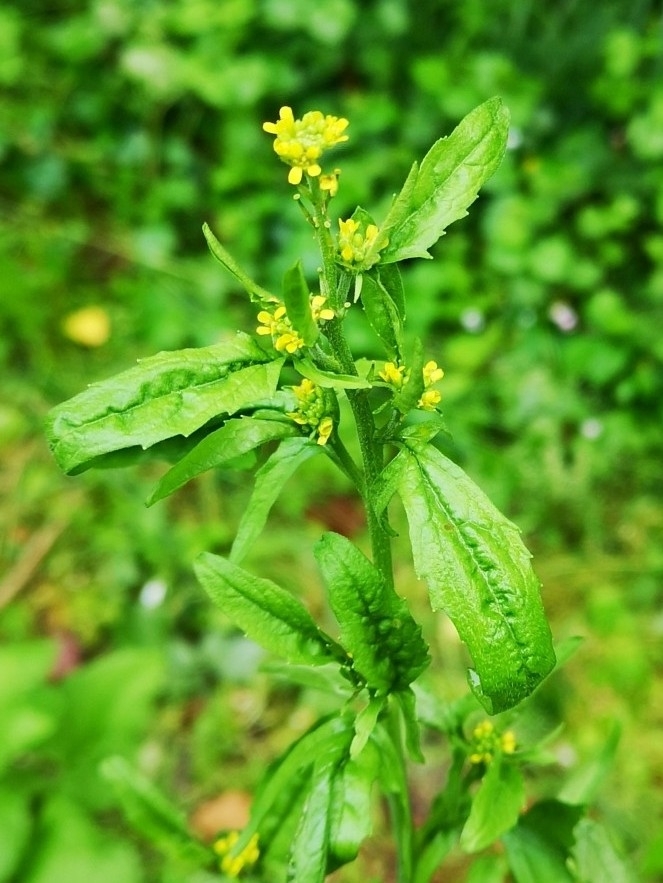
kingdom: Plantae
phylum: Tracheophyta
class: Magnoliopsida
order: Brassicales
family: Brassicaceae
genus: Sisymbrium
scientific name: Sisymbrium officinale
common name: Hedge mustard
